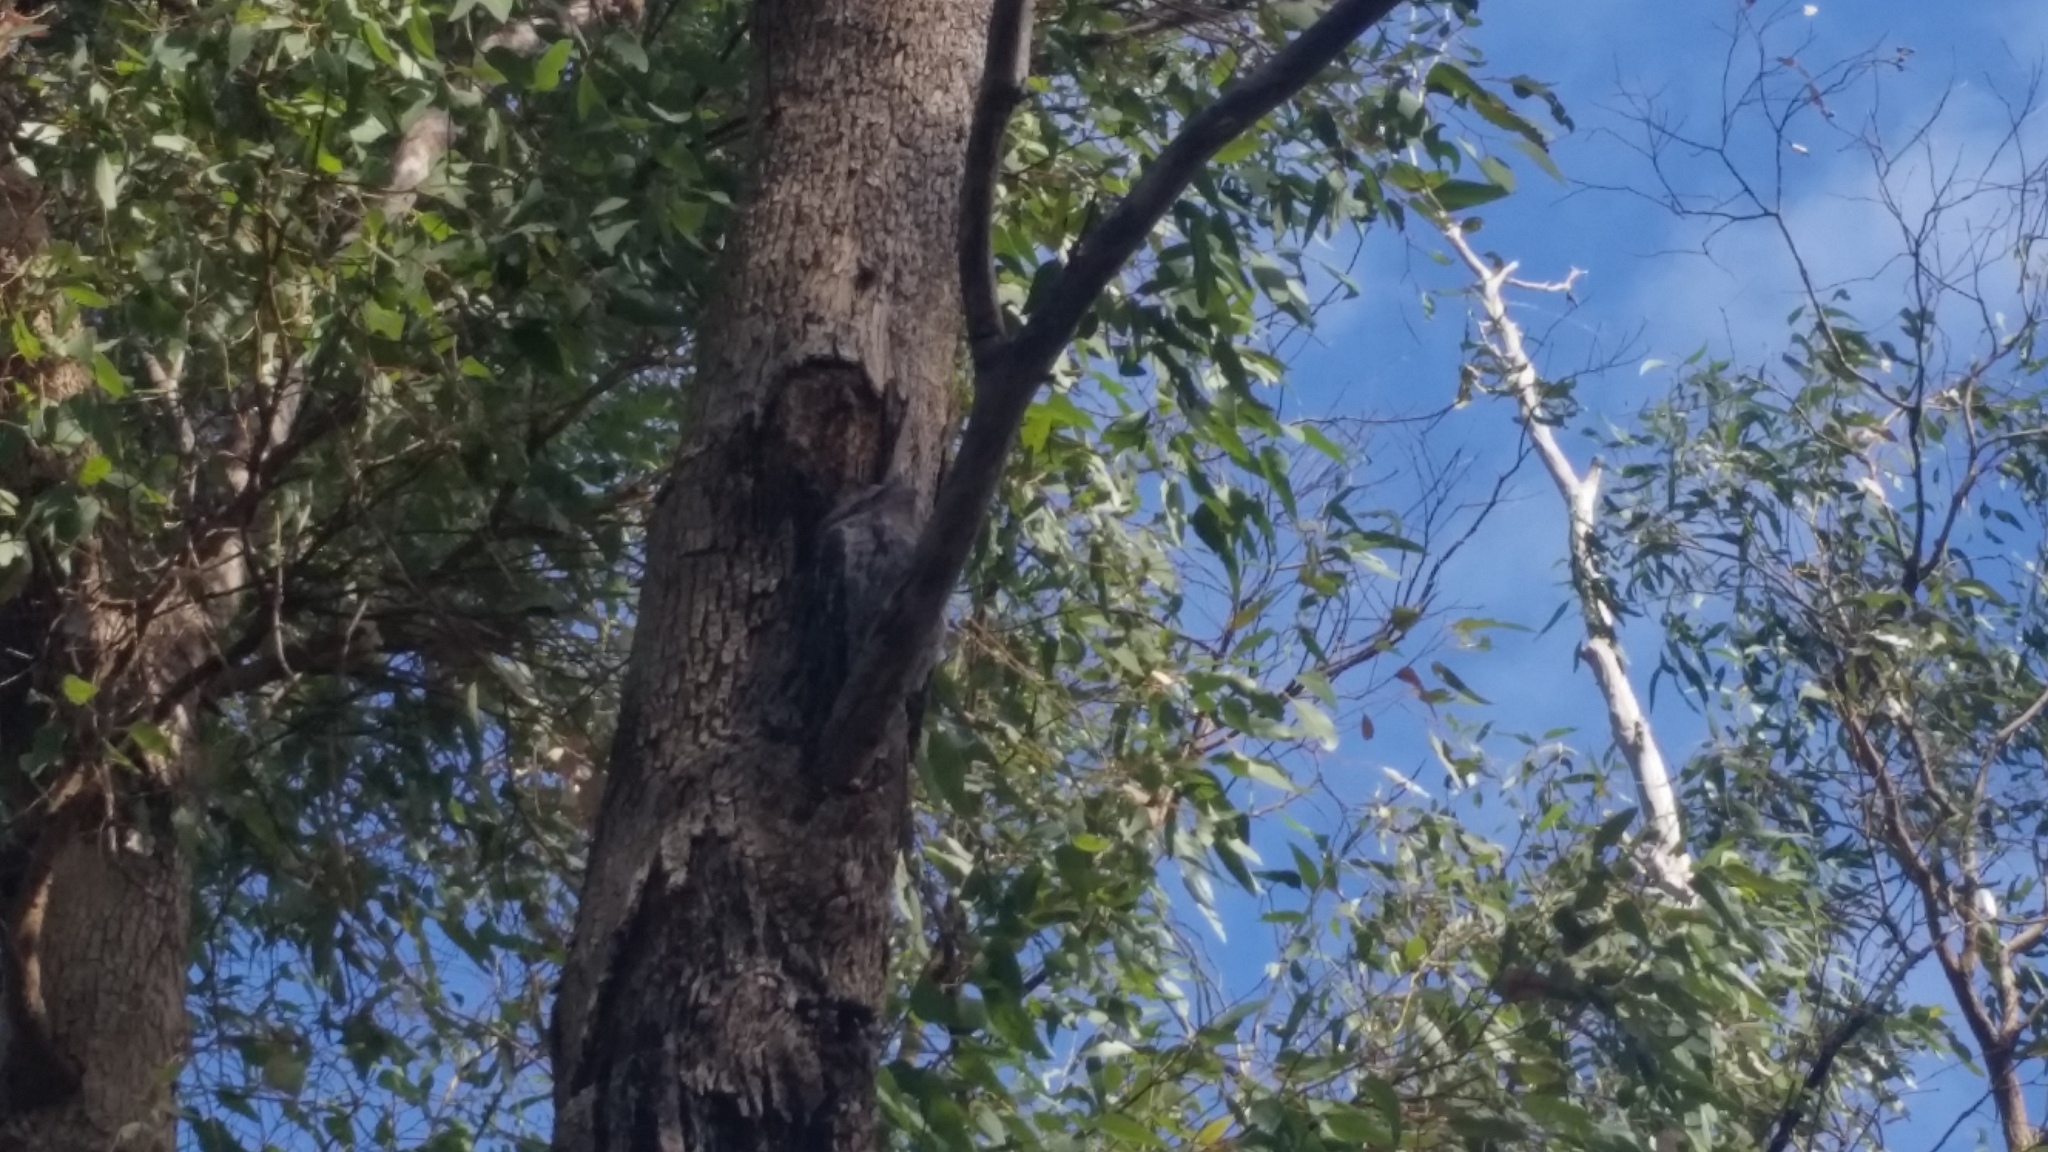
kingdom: Animalia
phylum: Chordata
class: Aves
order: Caprimulgiformes
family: Podargidae
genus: Podargus
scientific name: Podargus strigoides
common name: Tawny frogmouth
